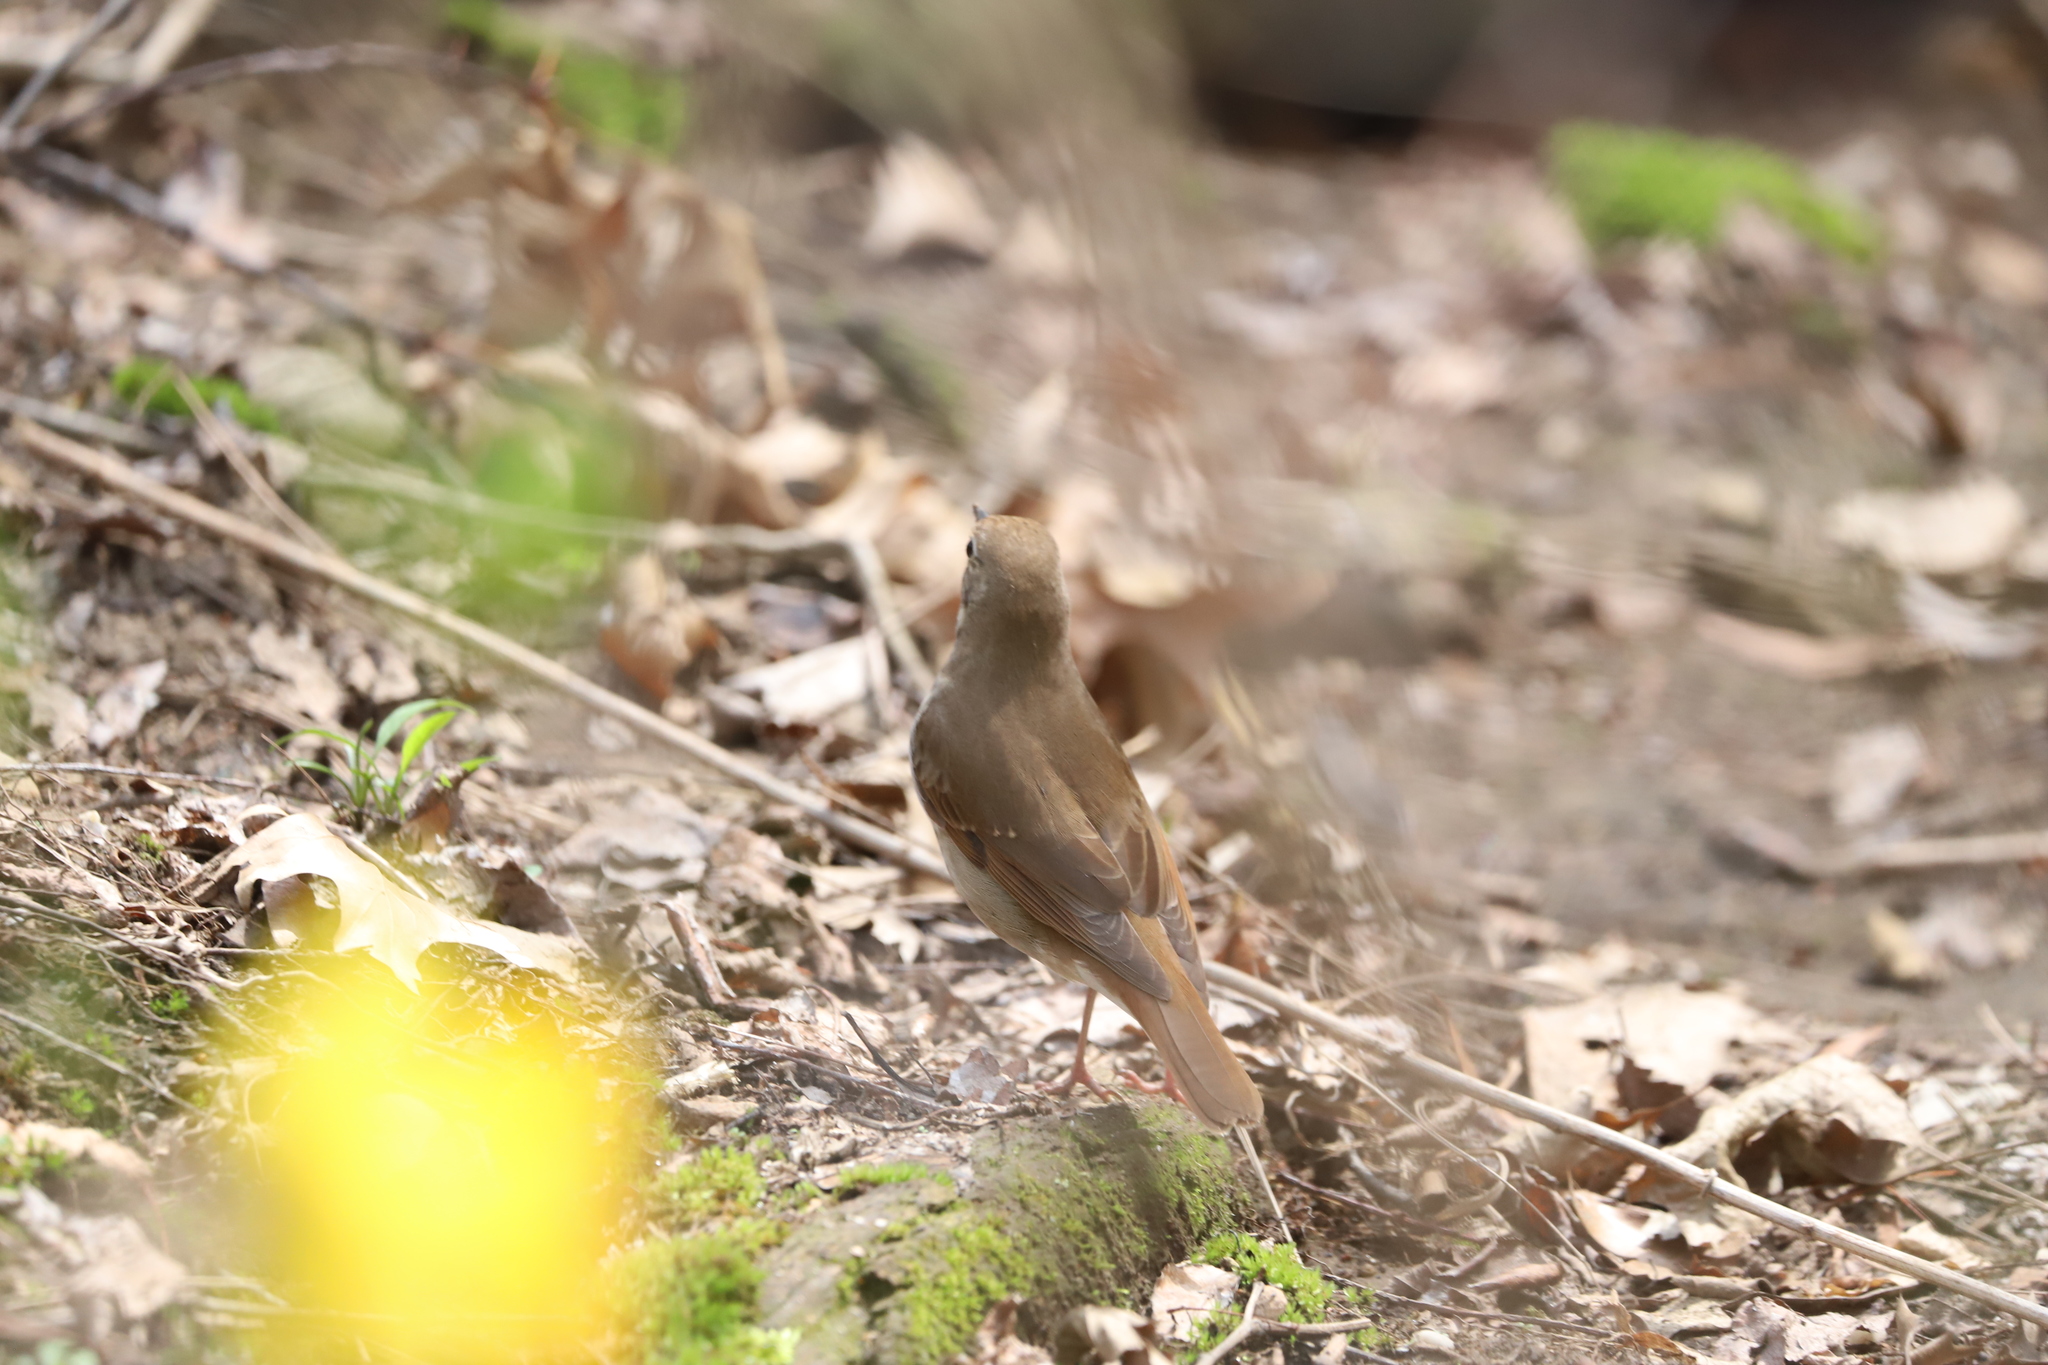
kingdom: Animalia
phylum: Chordata
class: Aves
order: Passeriformes
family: Turdidae
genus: Catharus
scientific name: Catharus guttatus
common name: Hermit thrush
